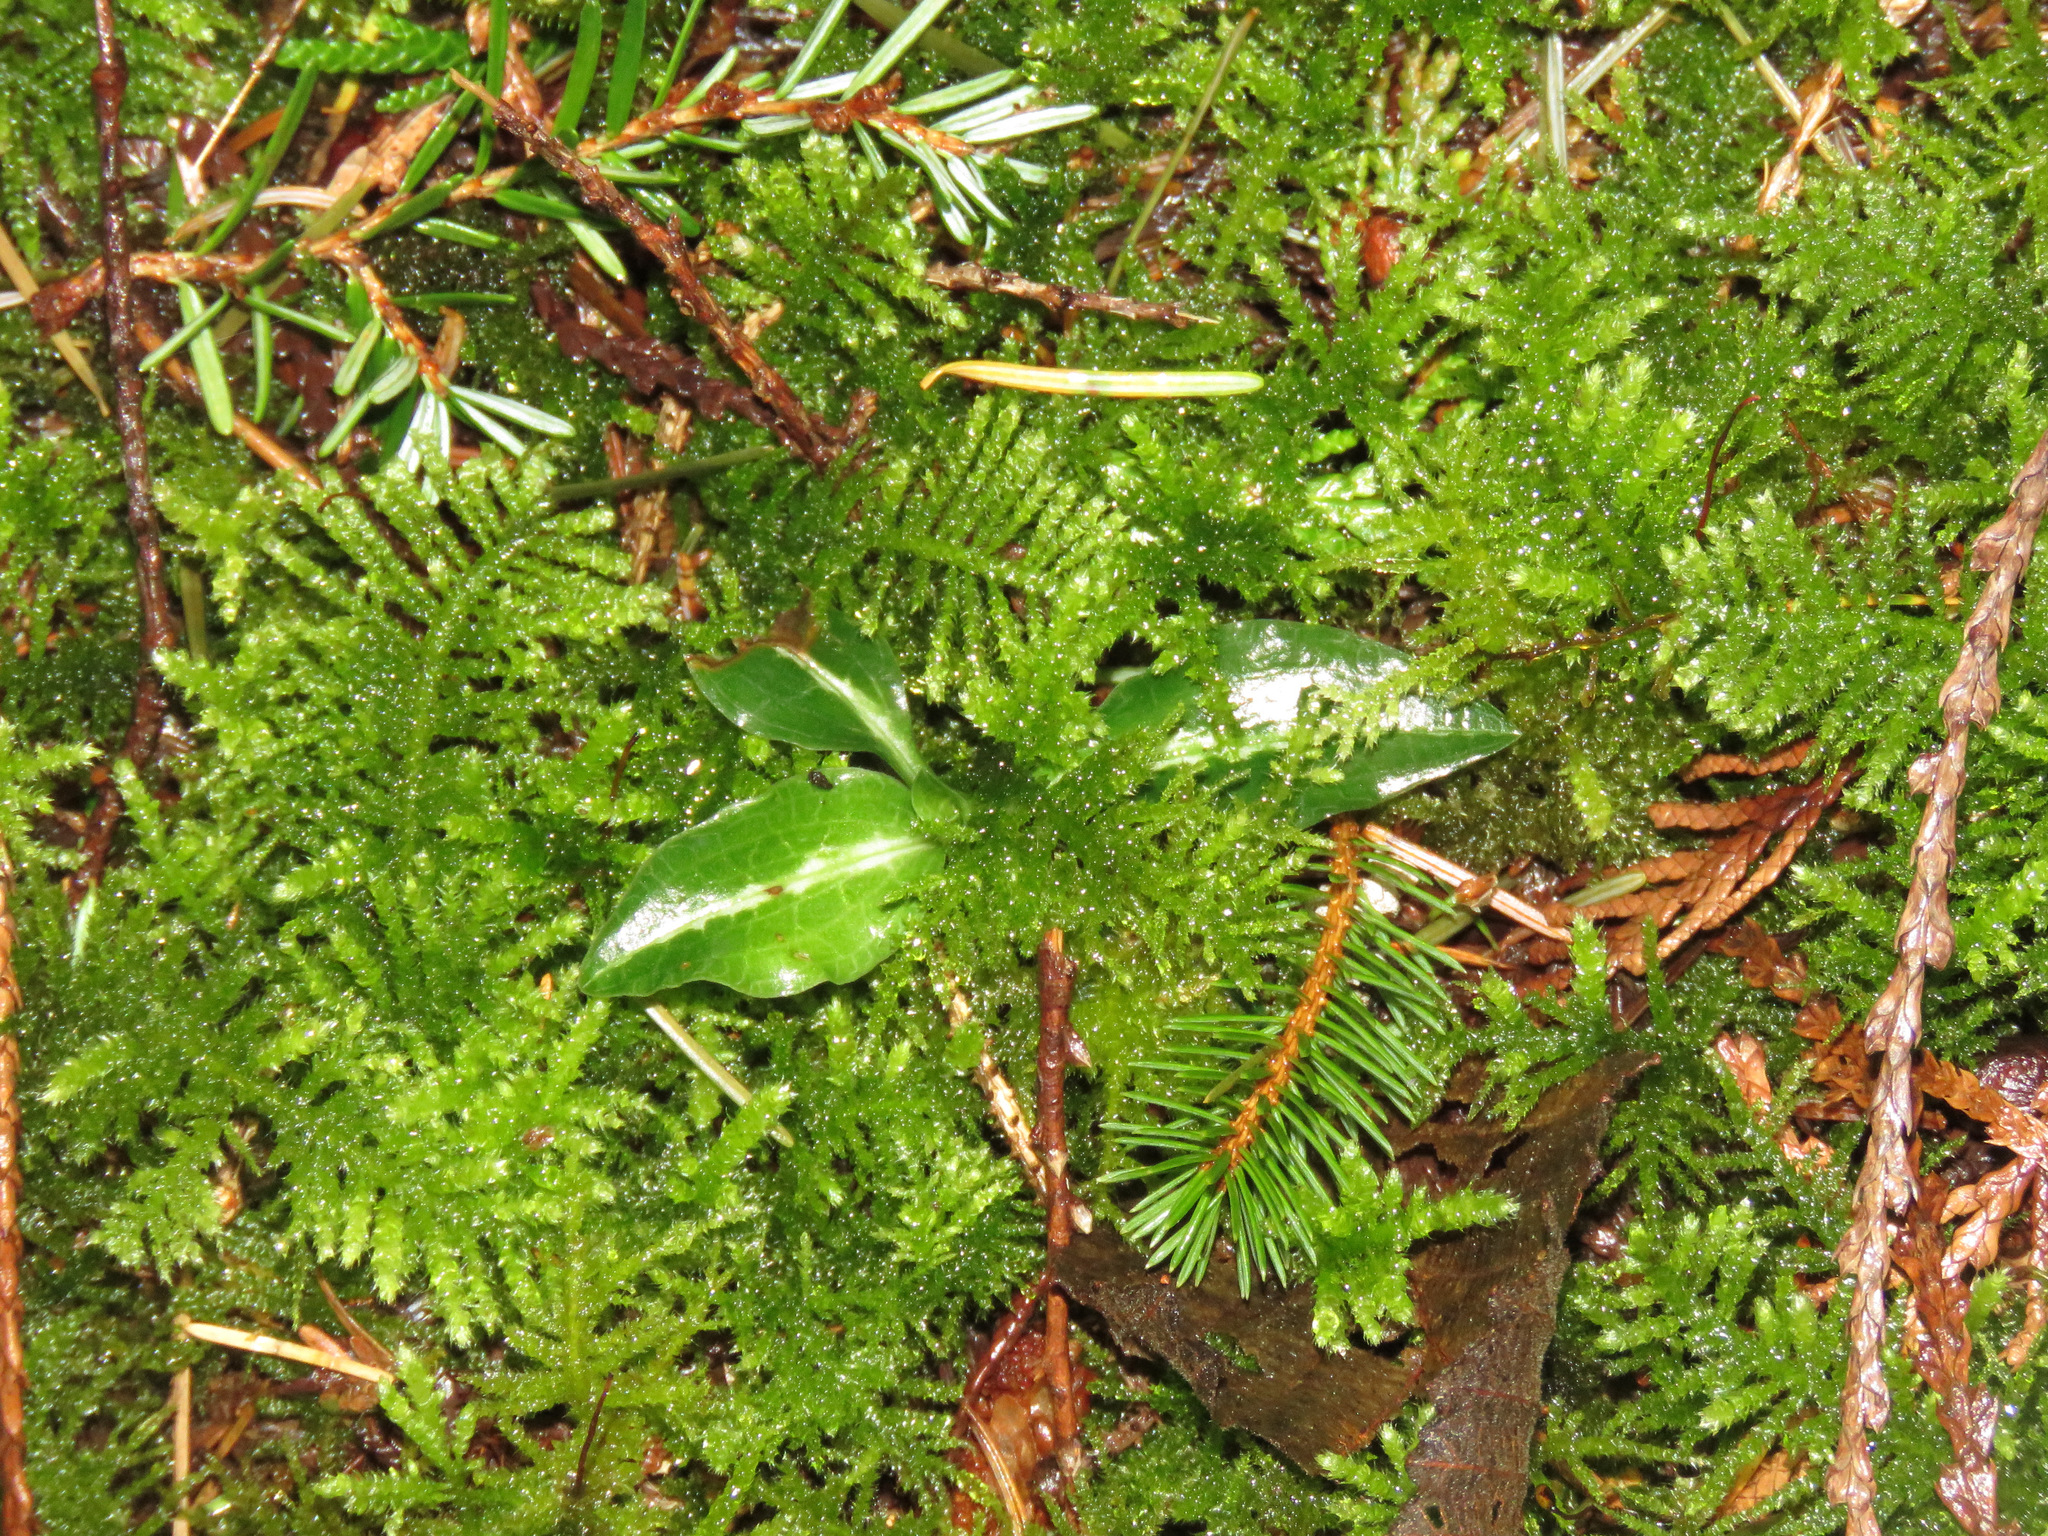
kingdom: Plantae
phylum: Tracheophyta
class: Liliopsida
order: Asparagales
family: Orchidaceae
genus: Goodyera
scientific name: Goodyera oblongifolia
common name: Giant rattlesnake-plantain
